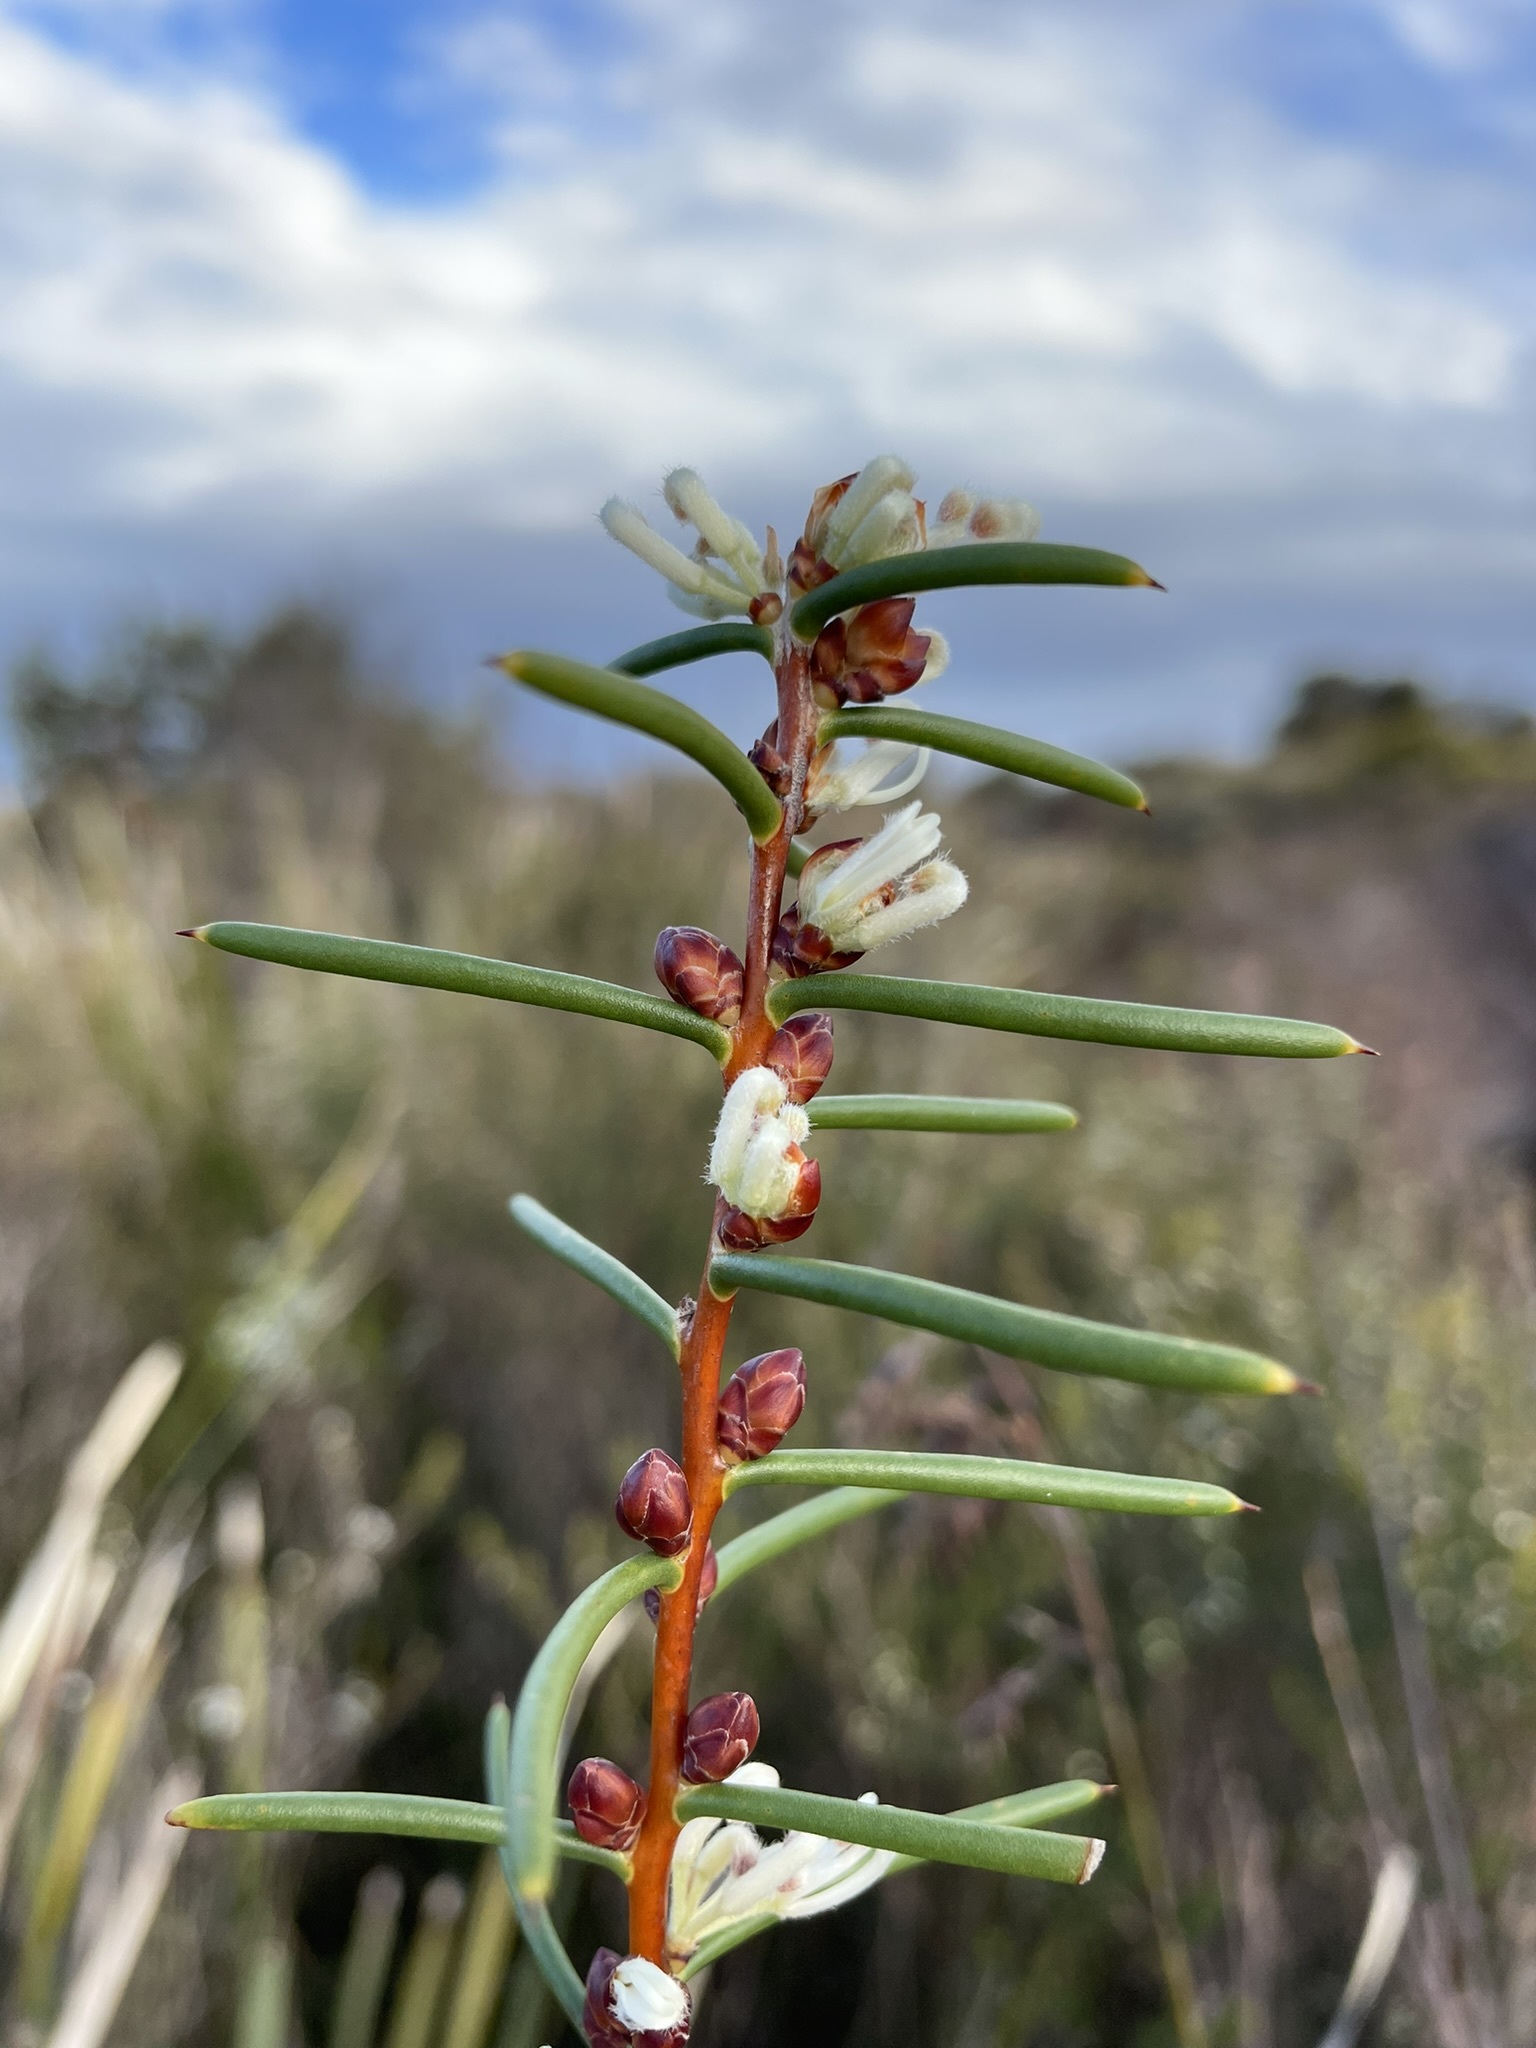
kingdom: Plantae
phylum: Tracheophyta
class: Magnoliopsida
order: Proteales
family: Proteaceae
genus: Hakea
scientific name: Hakea teretifolia
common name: Dagger hakea
